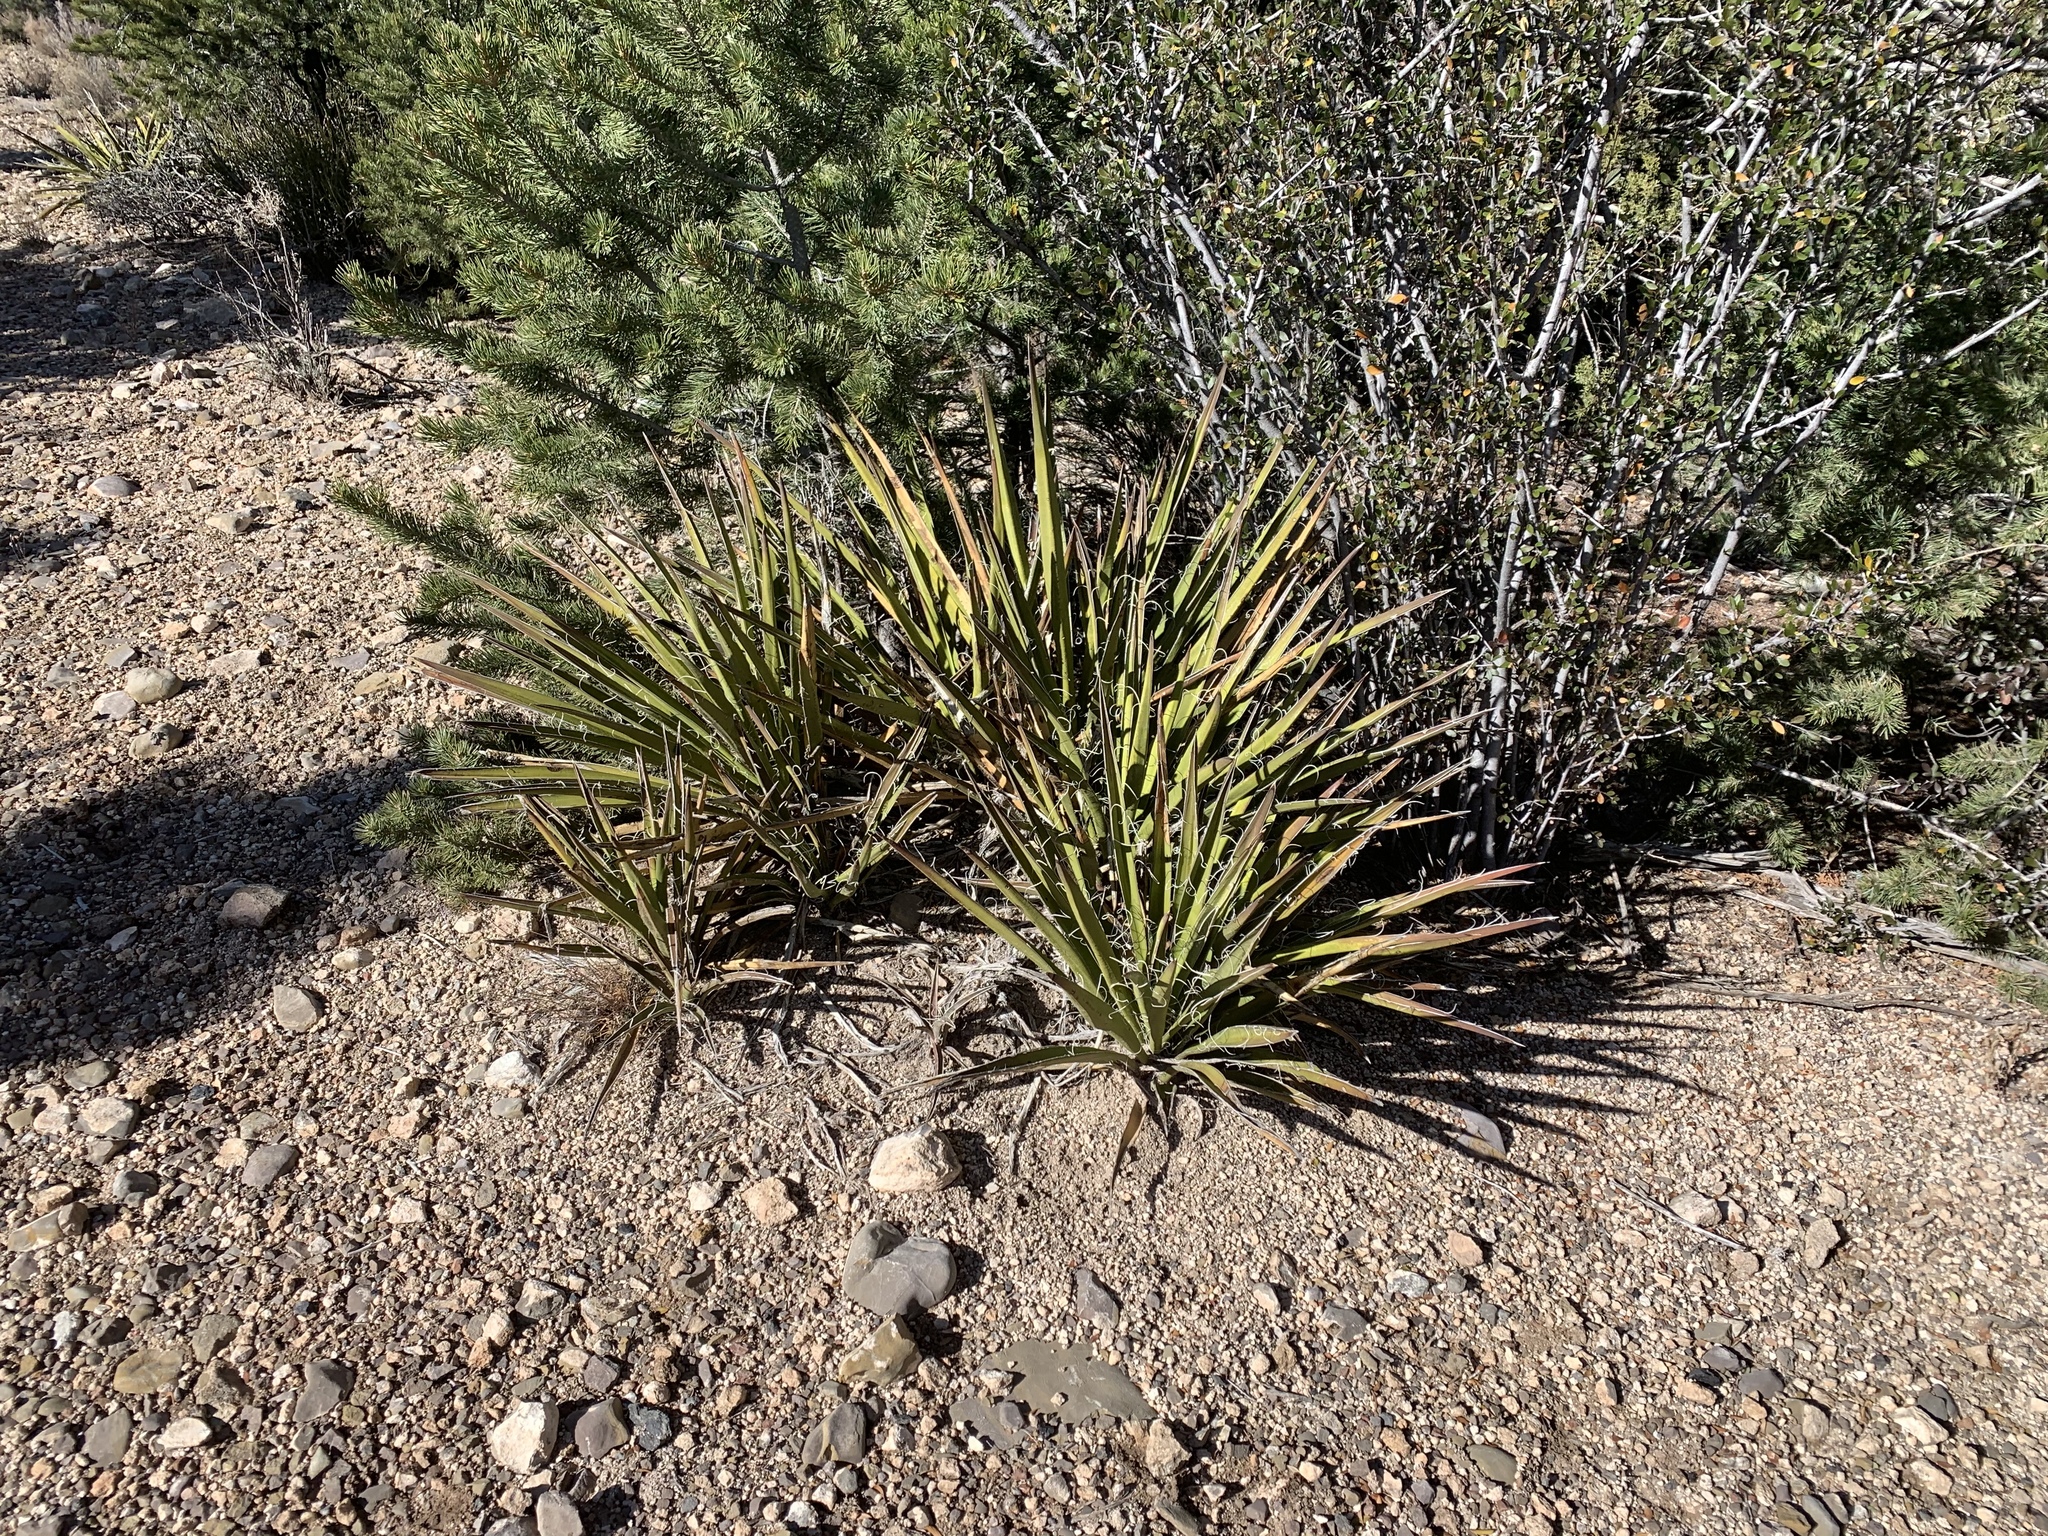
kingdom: Plantae
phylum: Tracheophyta
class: Liliopsida
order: Asparagales
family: Asparagaceae
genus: Yucca
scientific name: Yucca baccata
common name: Banana yucca
